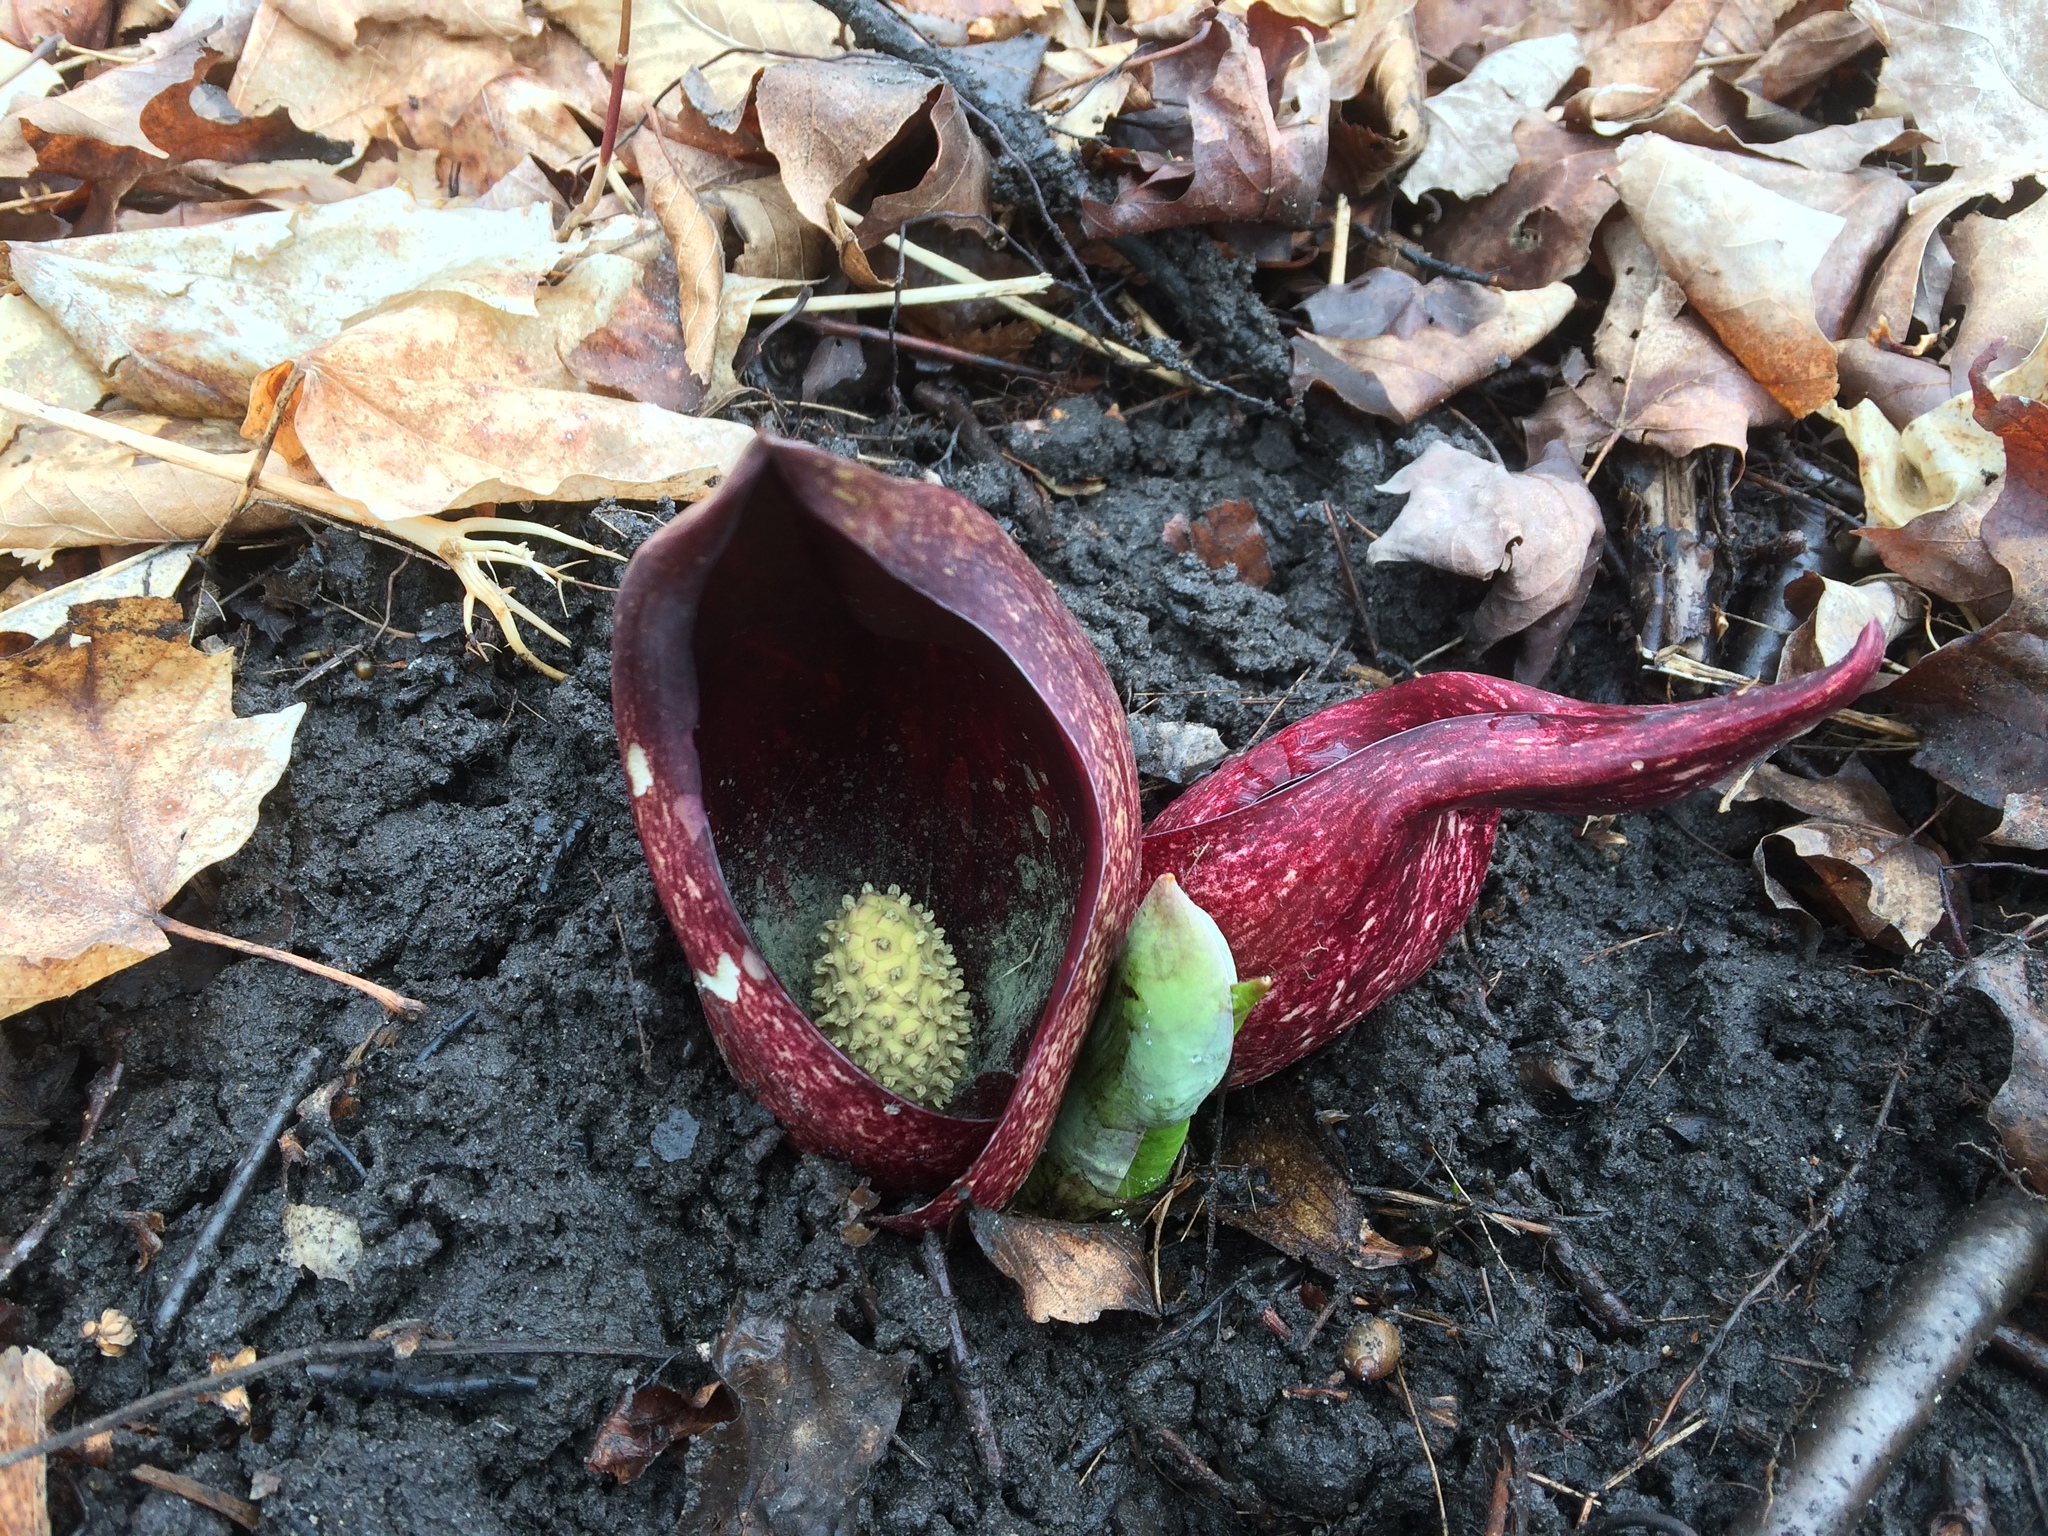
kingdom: Plantae
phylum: Tracheophyta
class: Liliopsida
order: Alismatales
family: Araceae
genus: Symplocarpus
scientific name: Symplocarpus foetidus
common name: Eastern skunk cabbage
